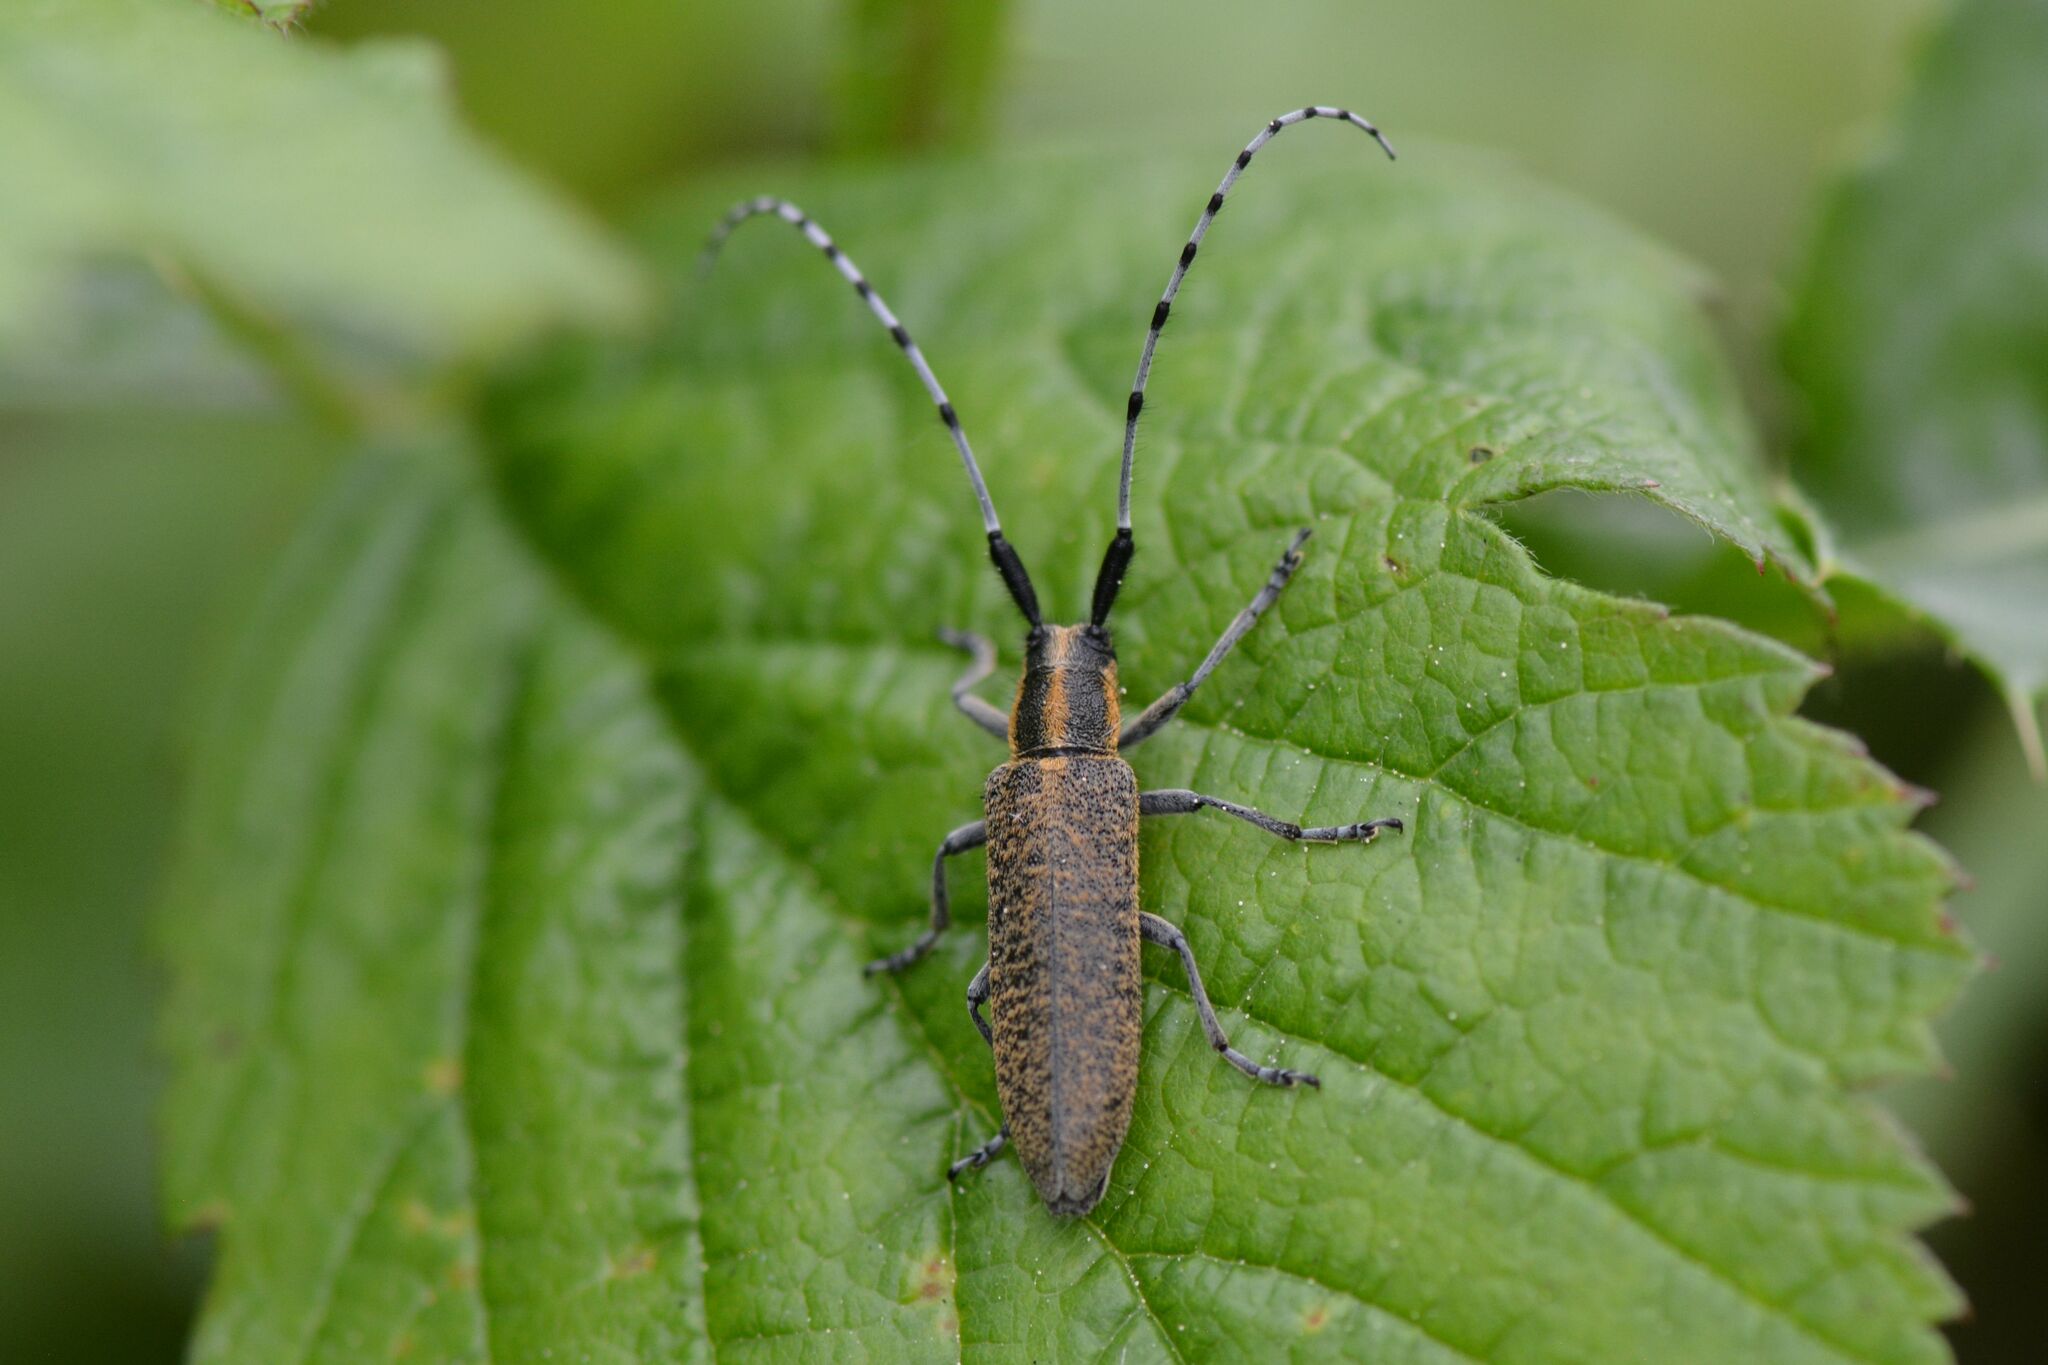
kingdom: Animalia
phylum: Arthropoda
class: Insecta
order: Coleoptera
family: Cerambycidae
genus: Agapanthia
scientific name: Agapanthia villosoviridescens
